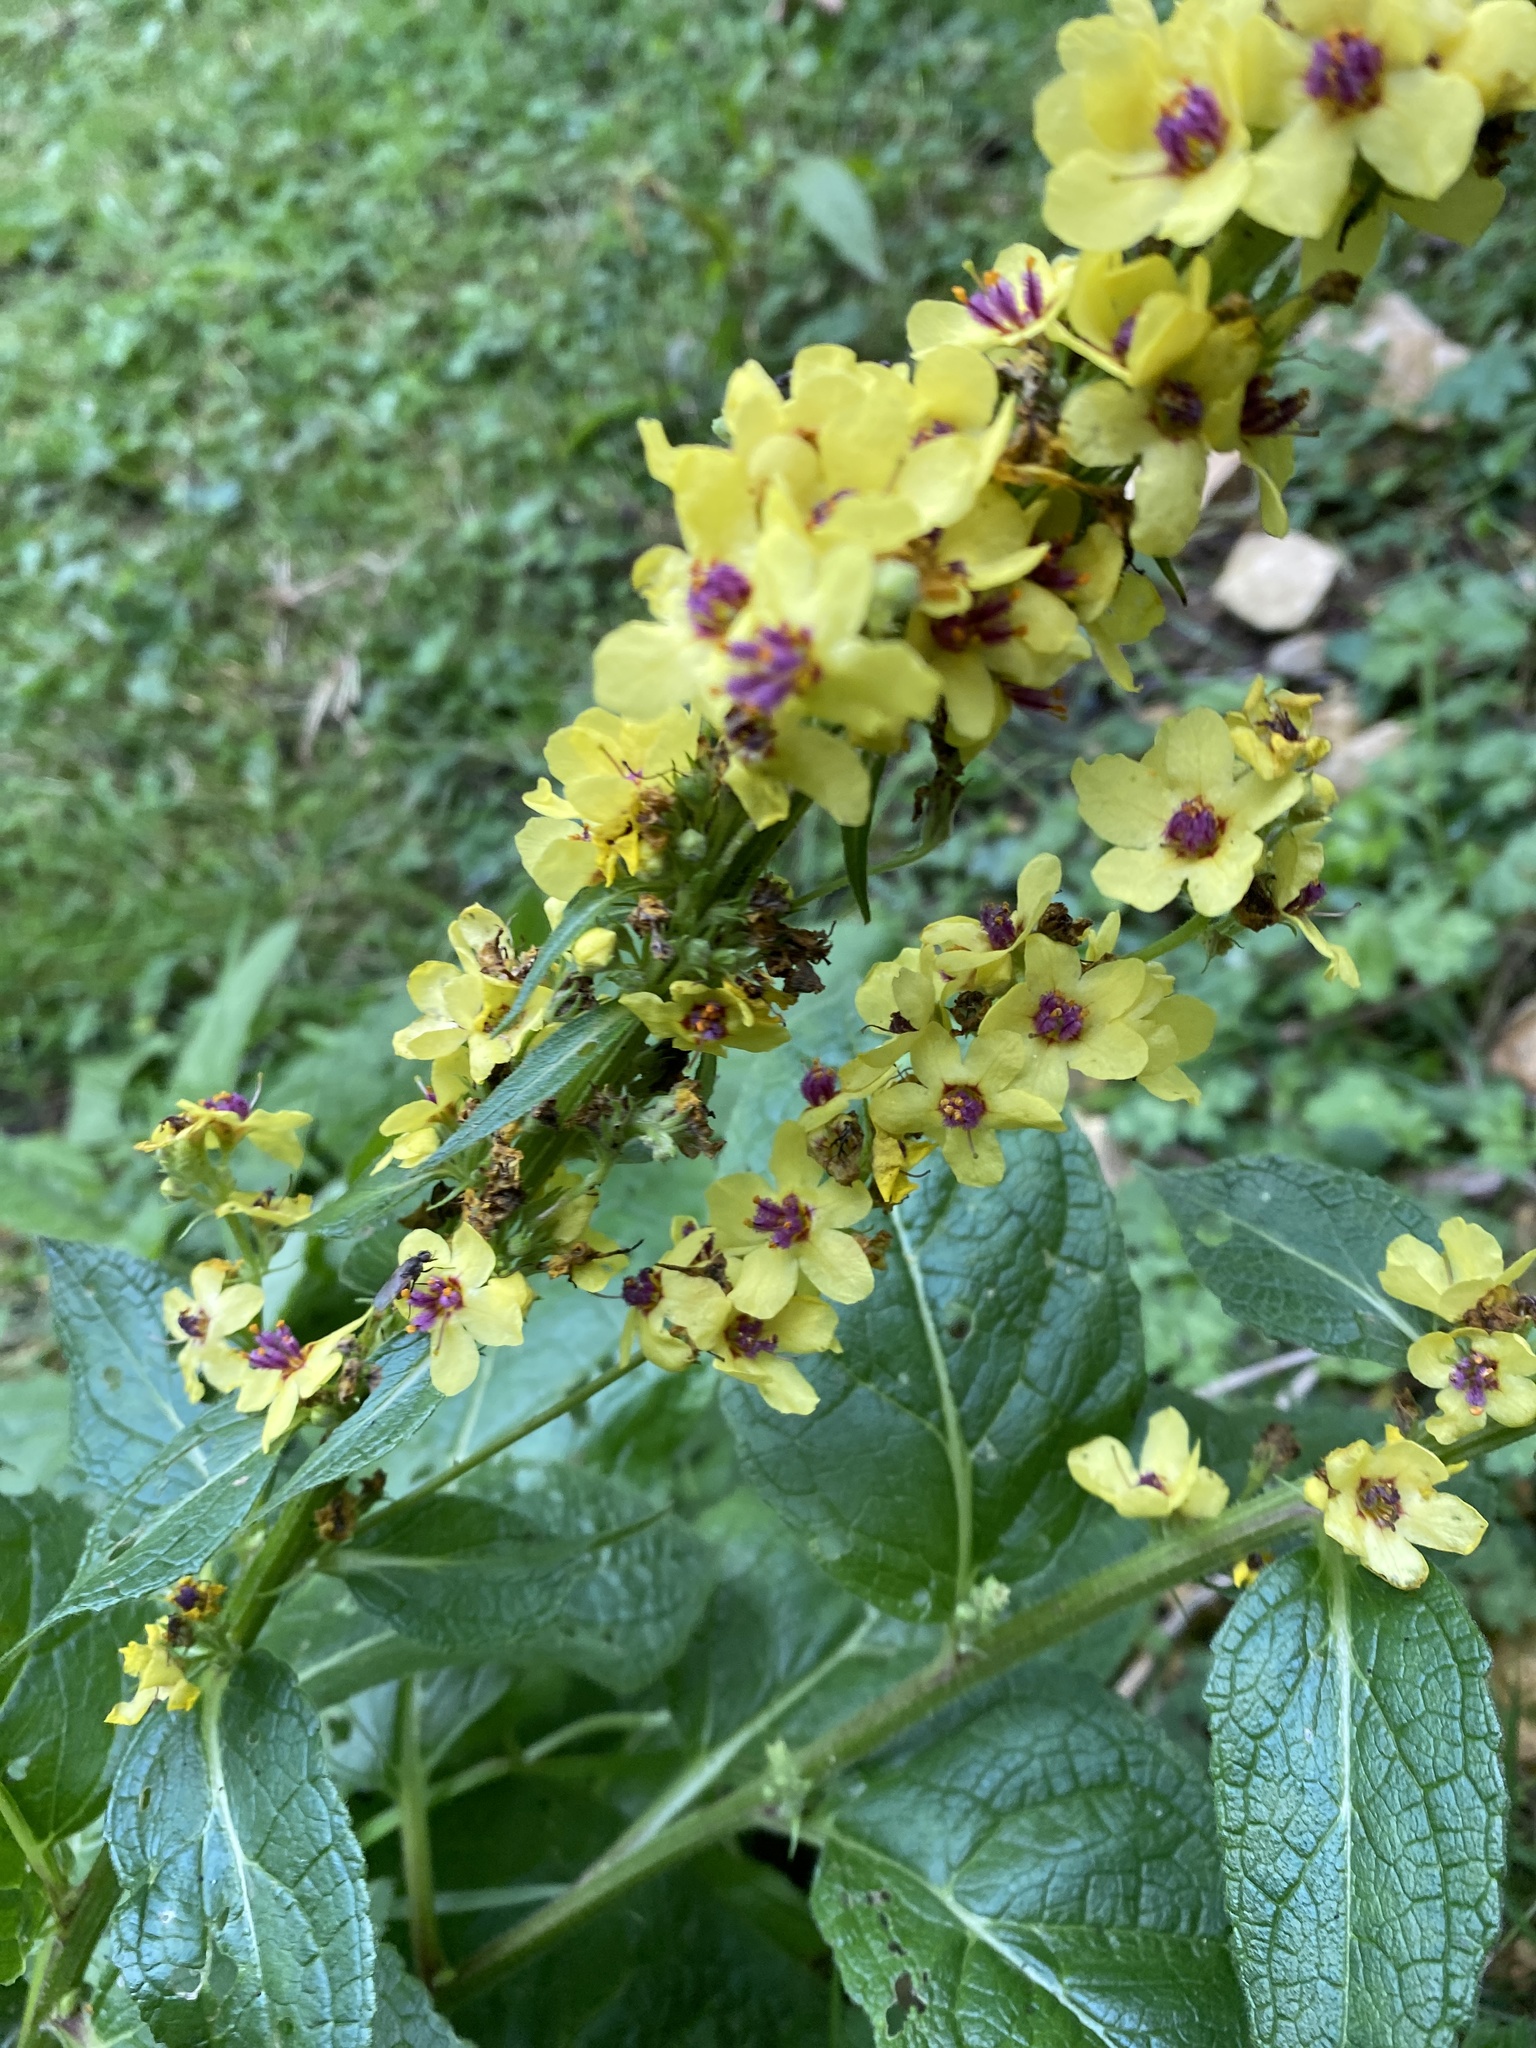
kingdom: Plantae
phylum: Tracheophyta
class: Magnoliopsida
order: Lamiales
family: Scrophulariaceae
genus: Verbascum
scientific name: Verbascum nigrum
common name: Dark mullein
